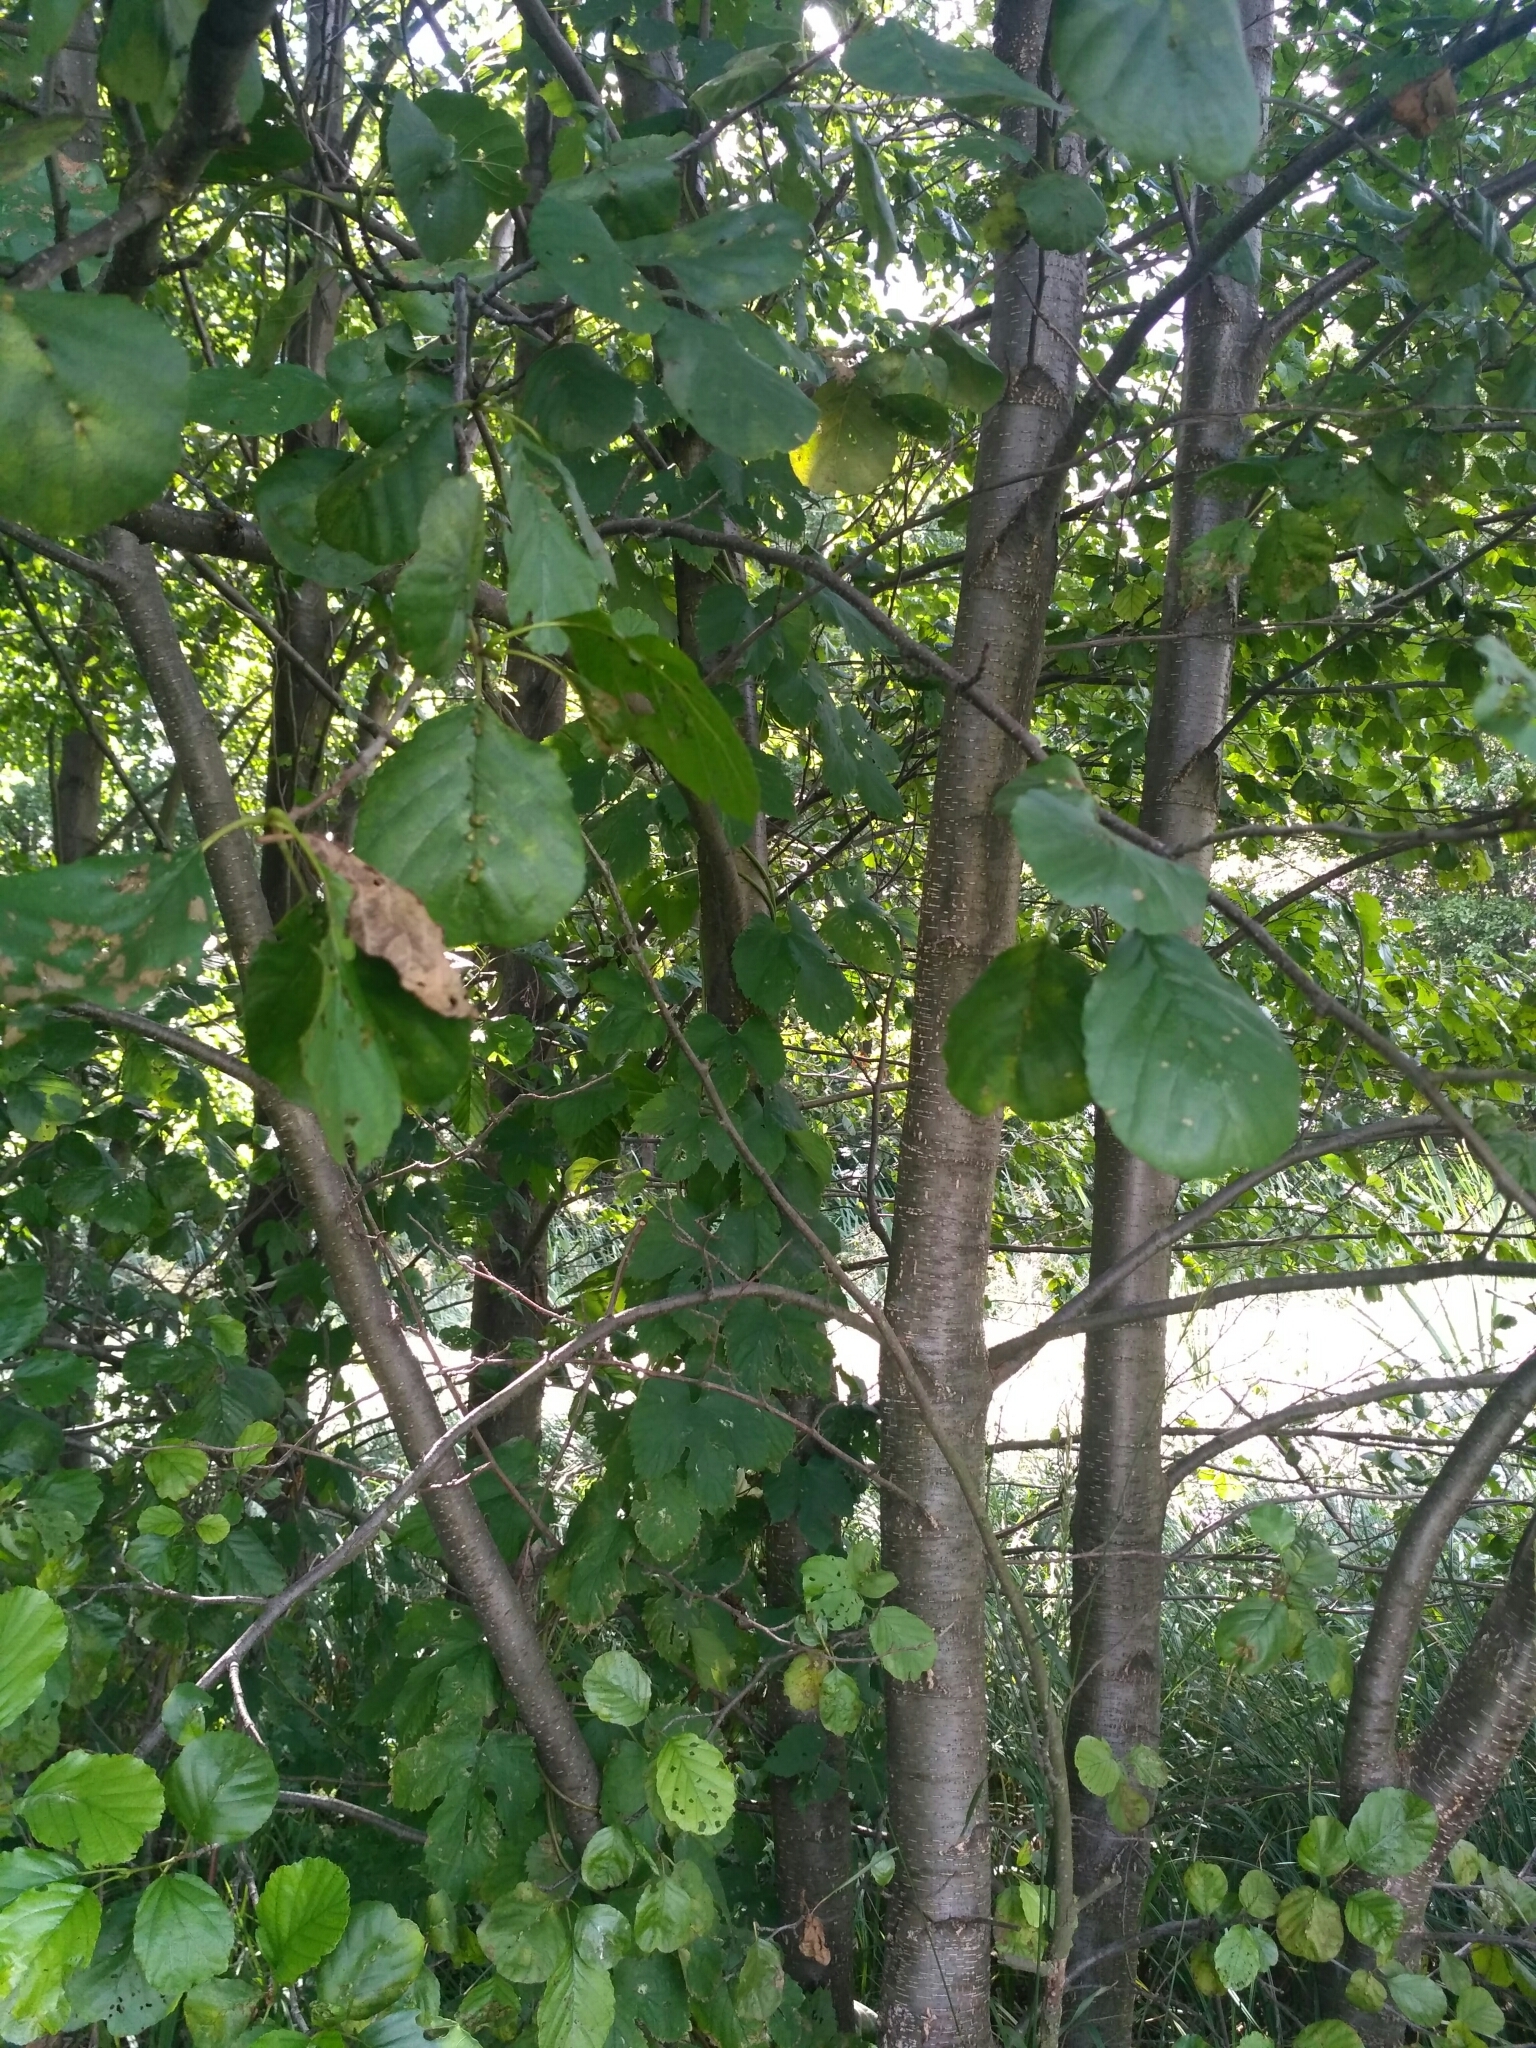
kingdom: Plantae
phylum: Tracheophyta
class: Magnoliopsida
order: Fagales
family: Betulaceae
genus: Alnus
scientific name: Alnus glutinosa
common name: Black alder
